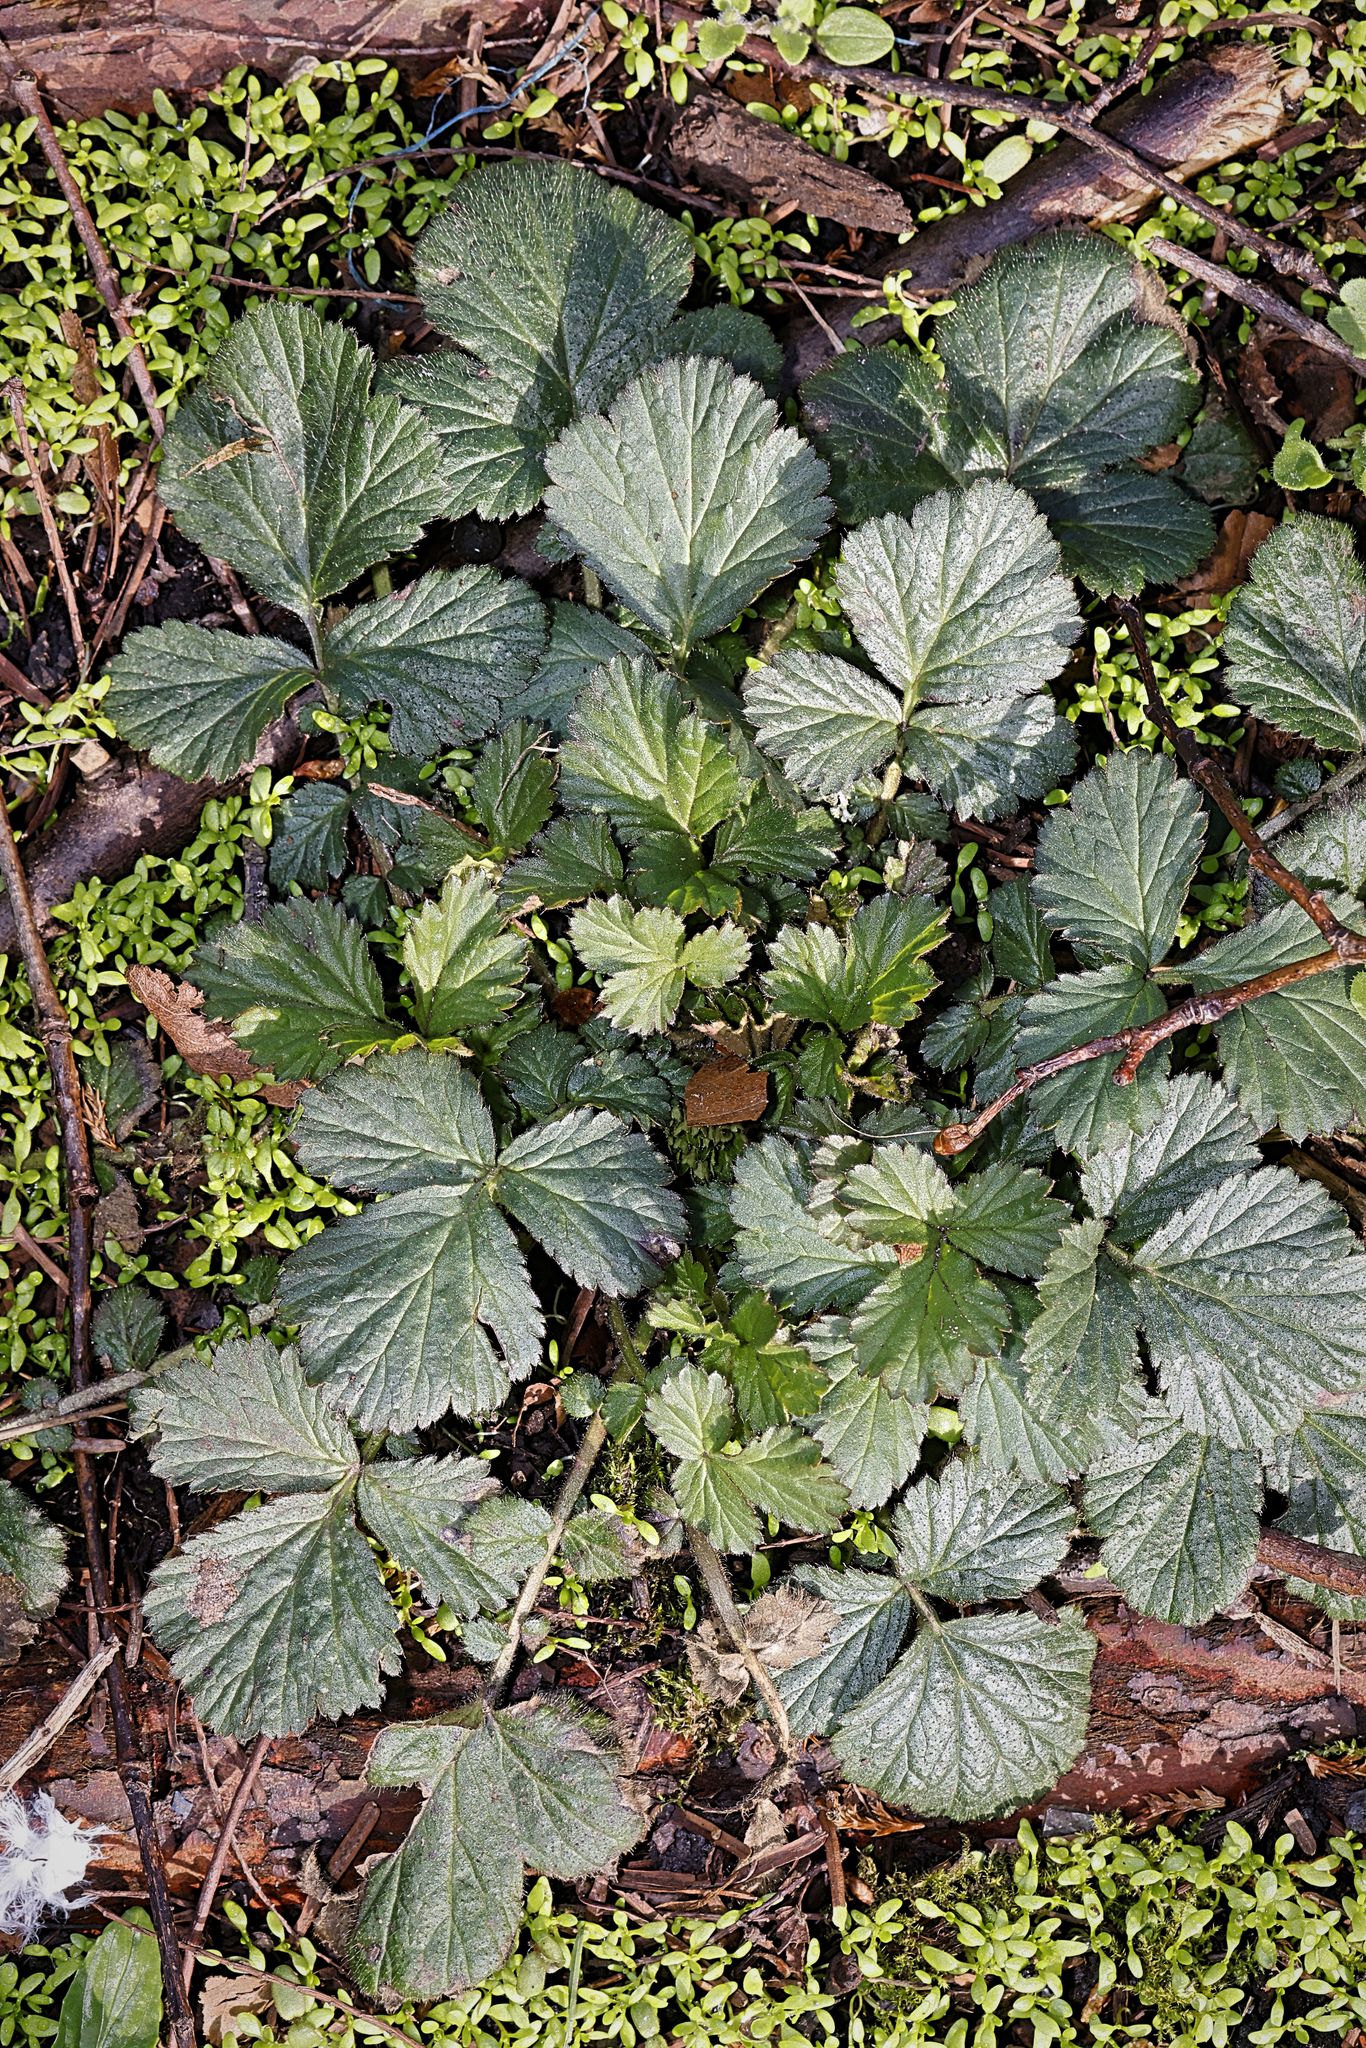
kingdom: Plantae
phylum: Tracheophyta
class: Magnoliopsida
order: Rosales
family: Rosaceae
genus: Geum
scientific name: Geum urbanum
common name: Wood avens
